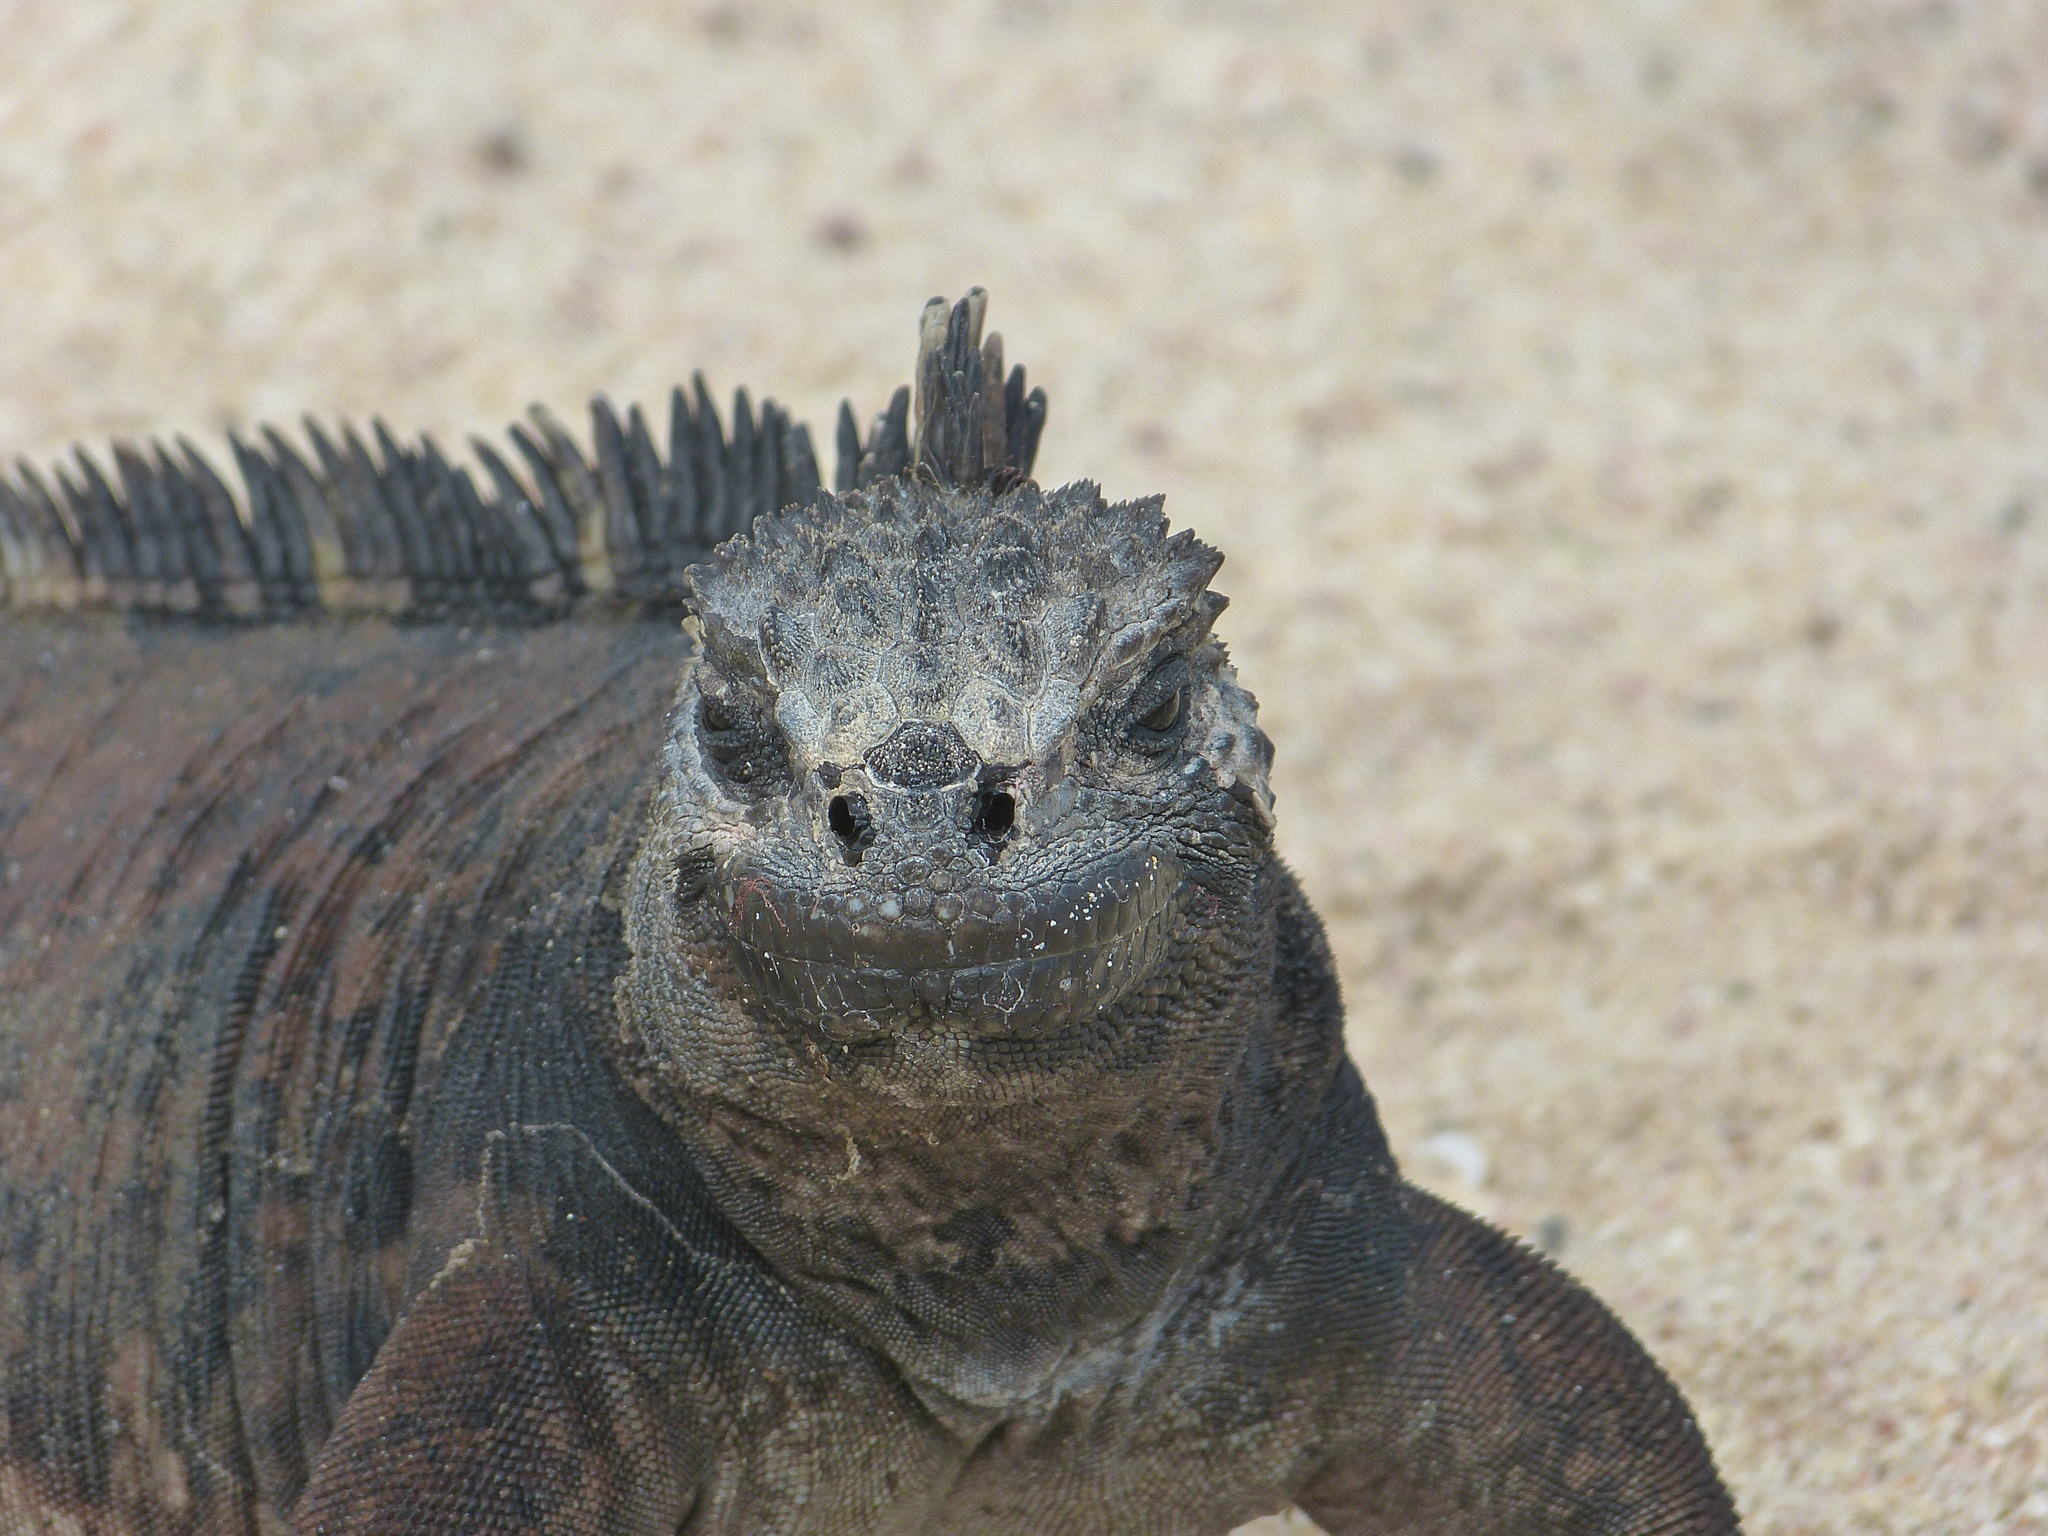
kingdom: Animalia
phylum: Chordata
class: Squamata
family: Iguanidae
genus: Amblyrhynchus
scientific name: Amblyrhynchus cristatus
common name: Marine iguana
